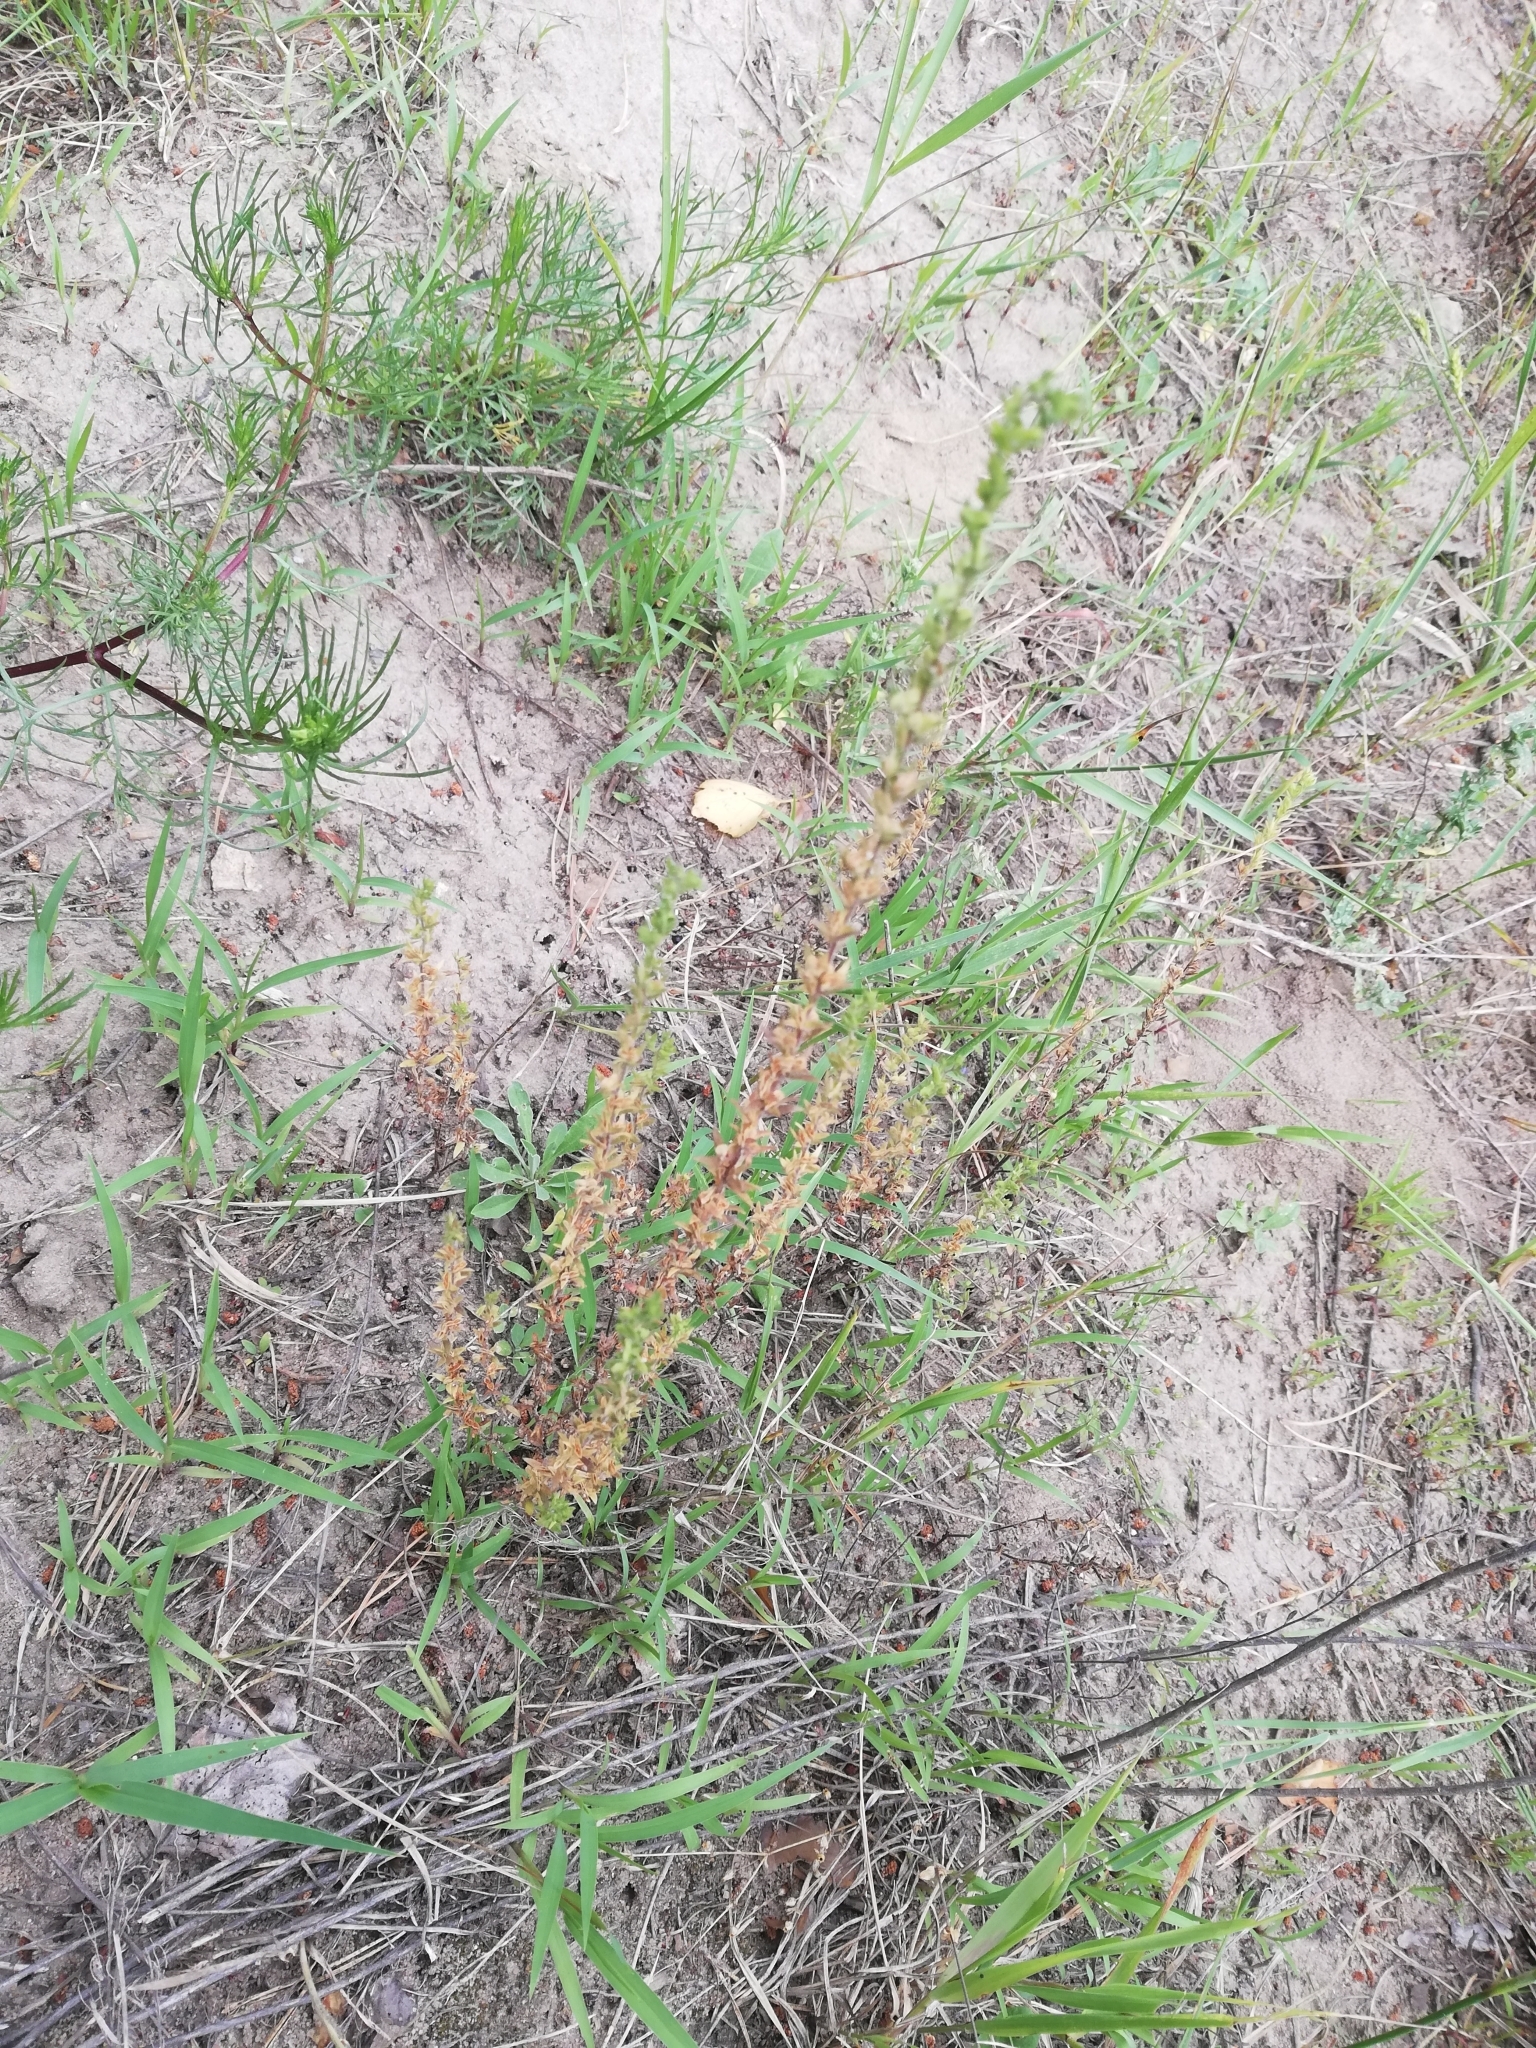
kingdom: Plantae
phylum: Tracheophyta
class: Magnoliopsida
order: Lamiales
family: Plantaginaceae
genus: Veronica
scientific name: Veronica arvensis
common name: Corn speedwell
